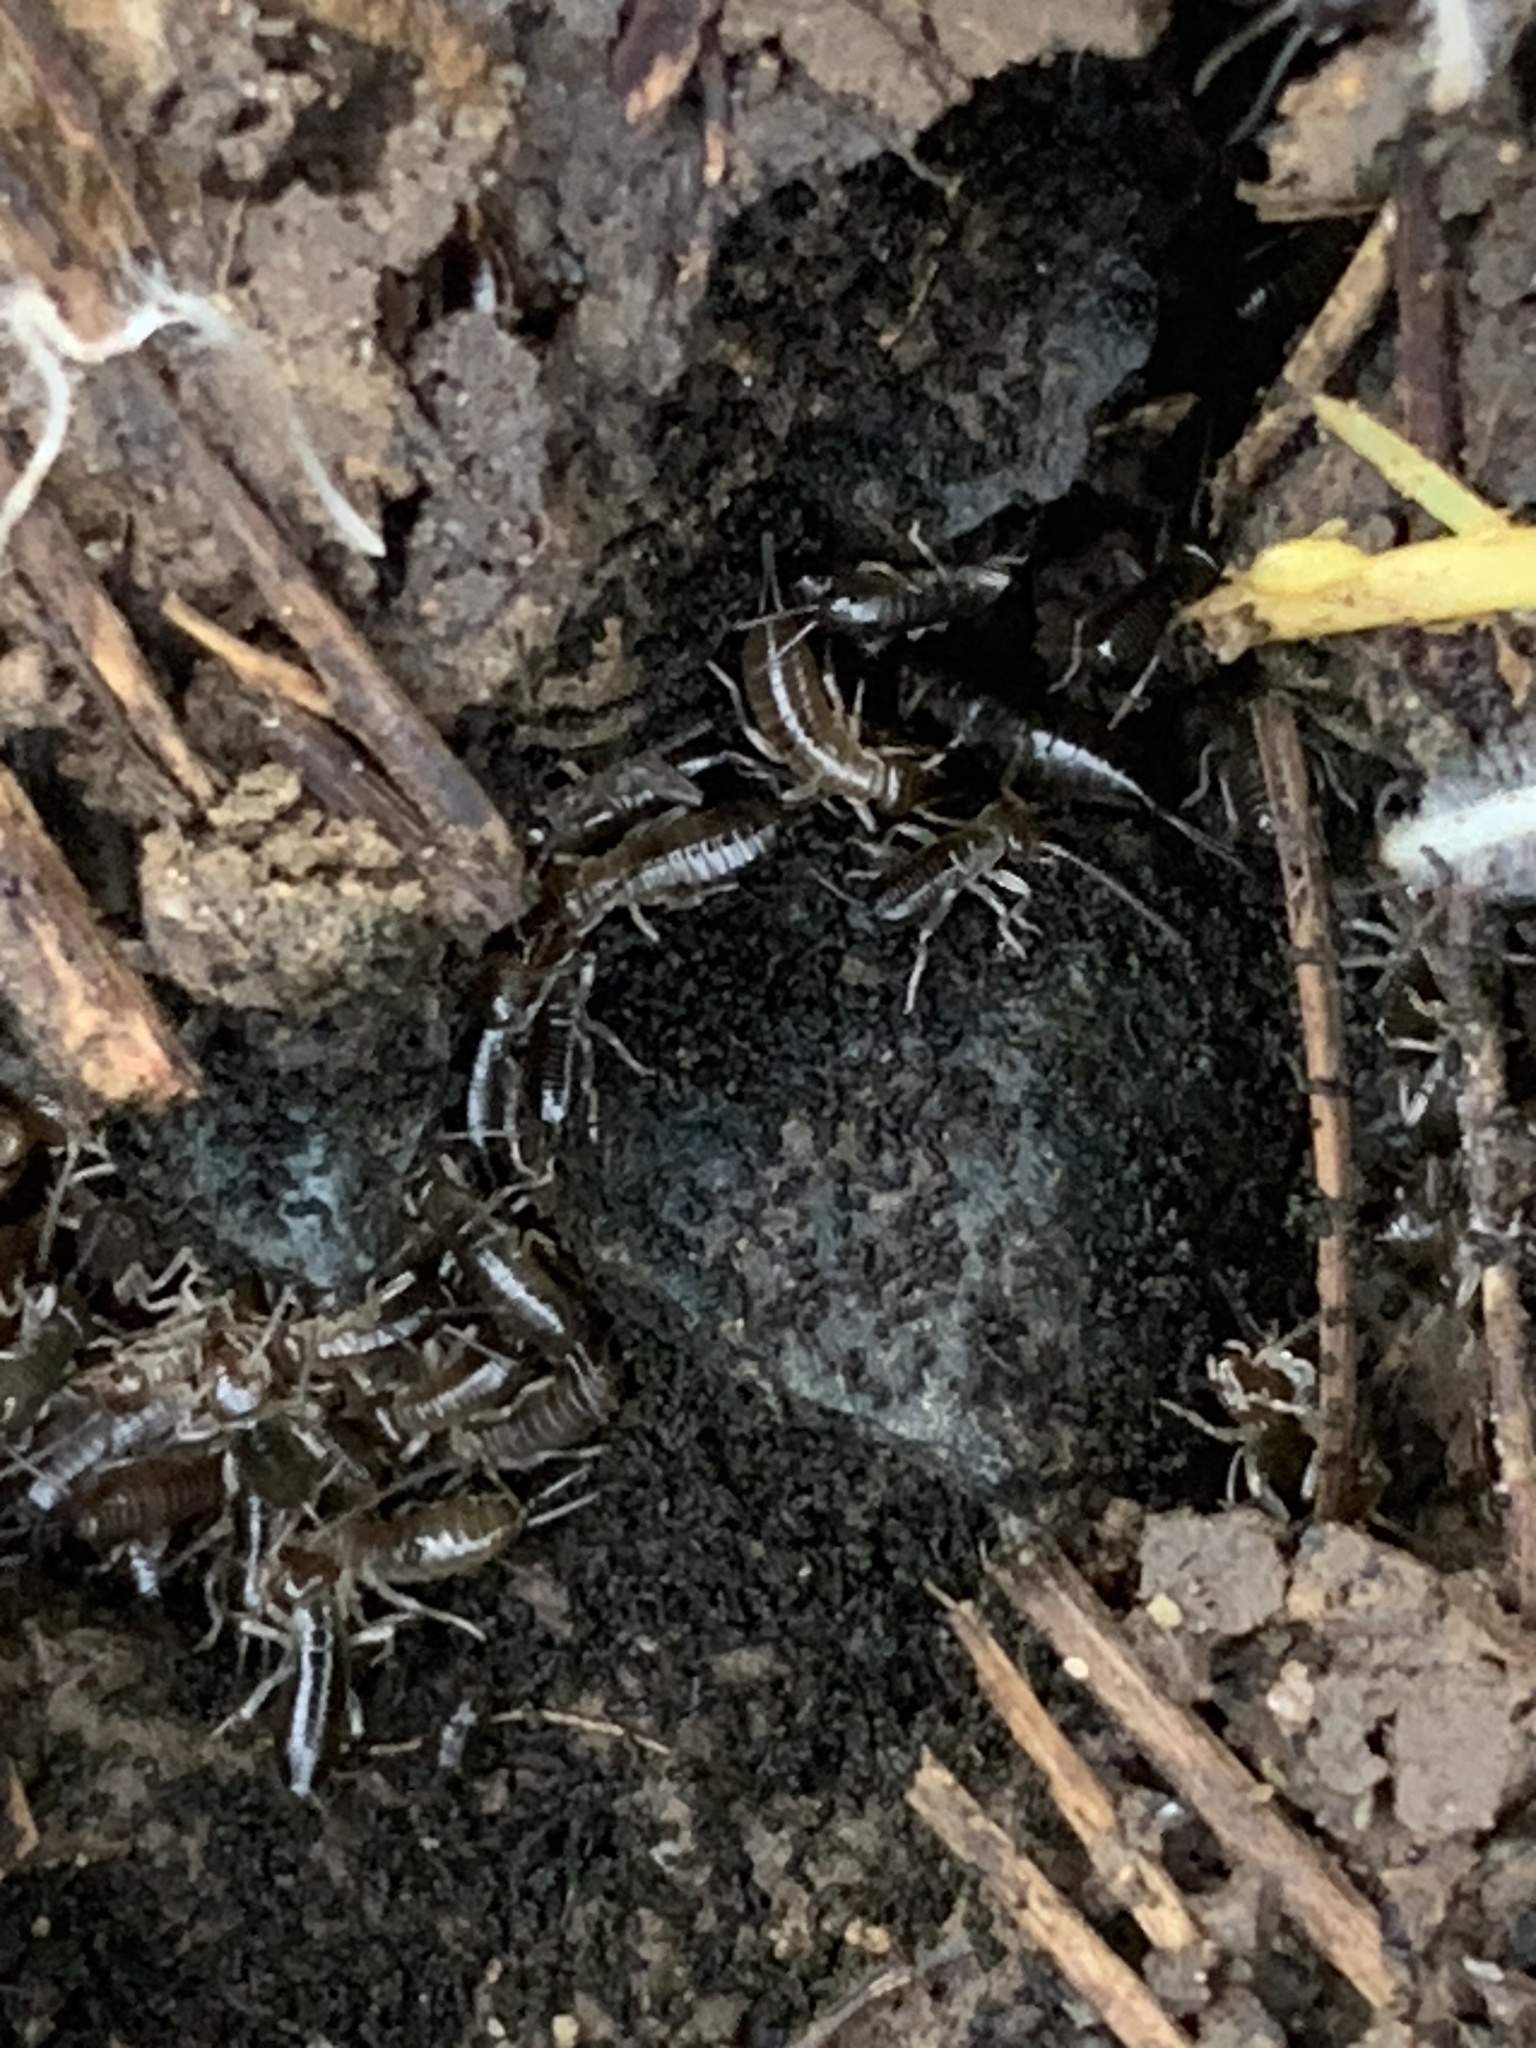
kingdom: Animalia
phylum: Arthropoda
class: Insecta
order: Dermaptera
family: Forficulidae
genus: Forficula
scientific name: Forficula dentata
